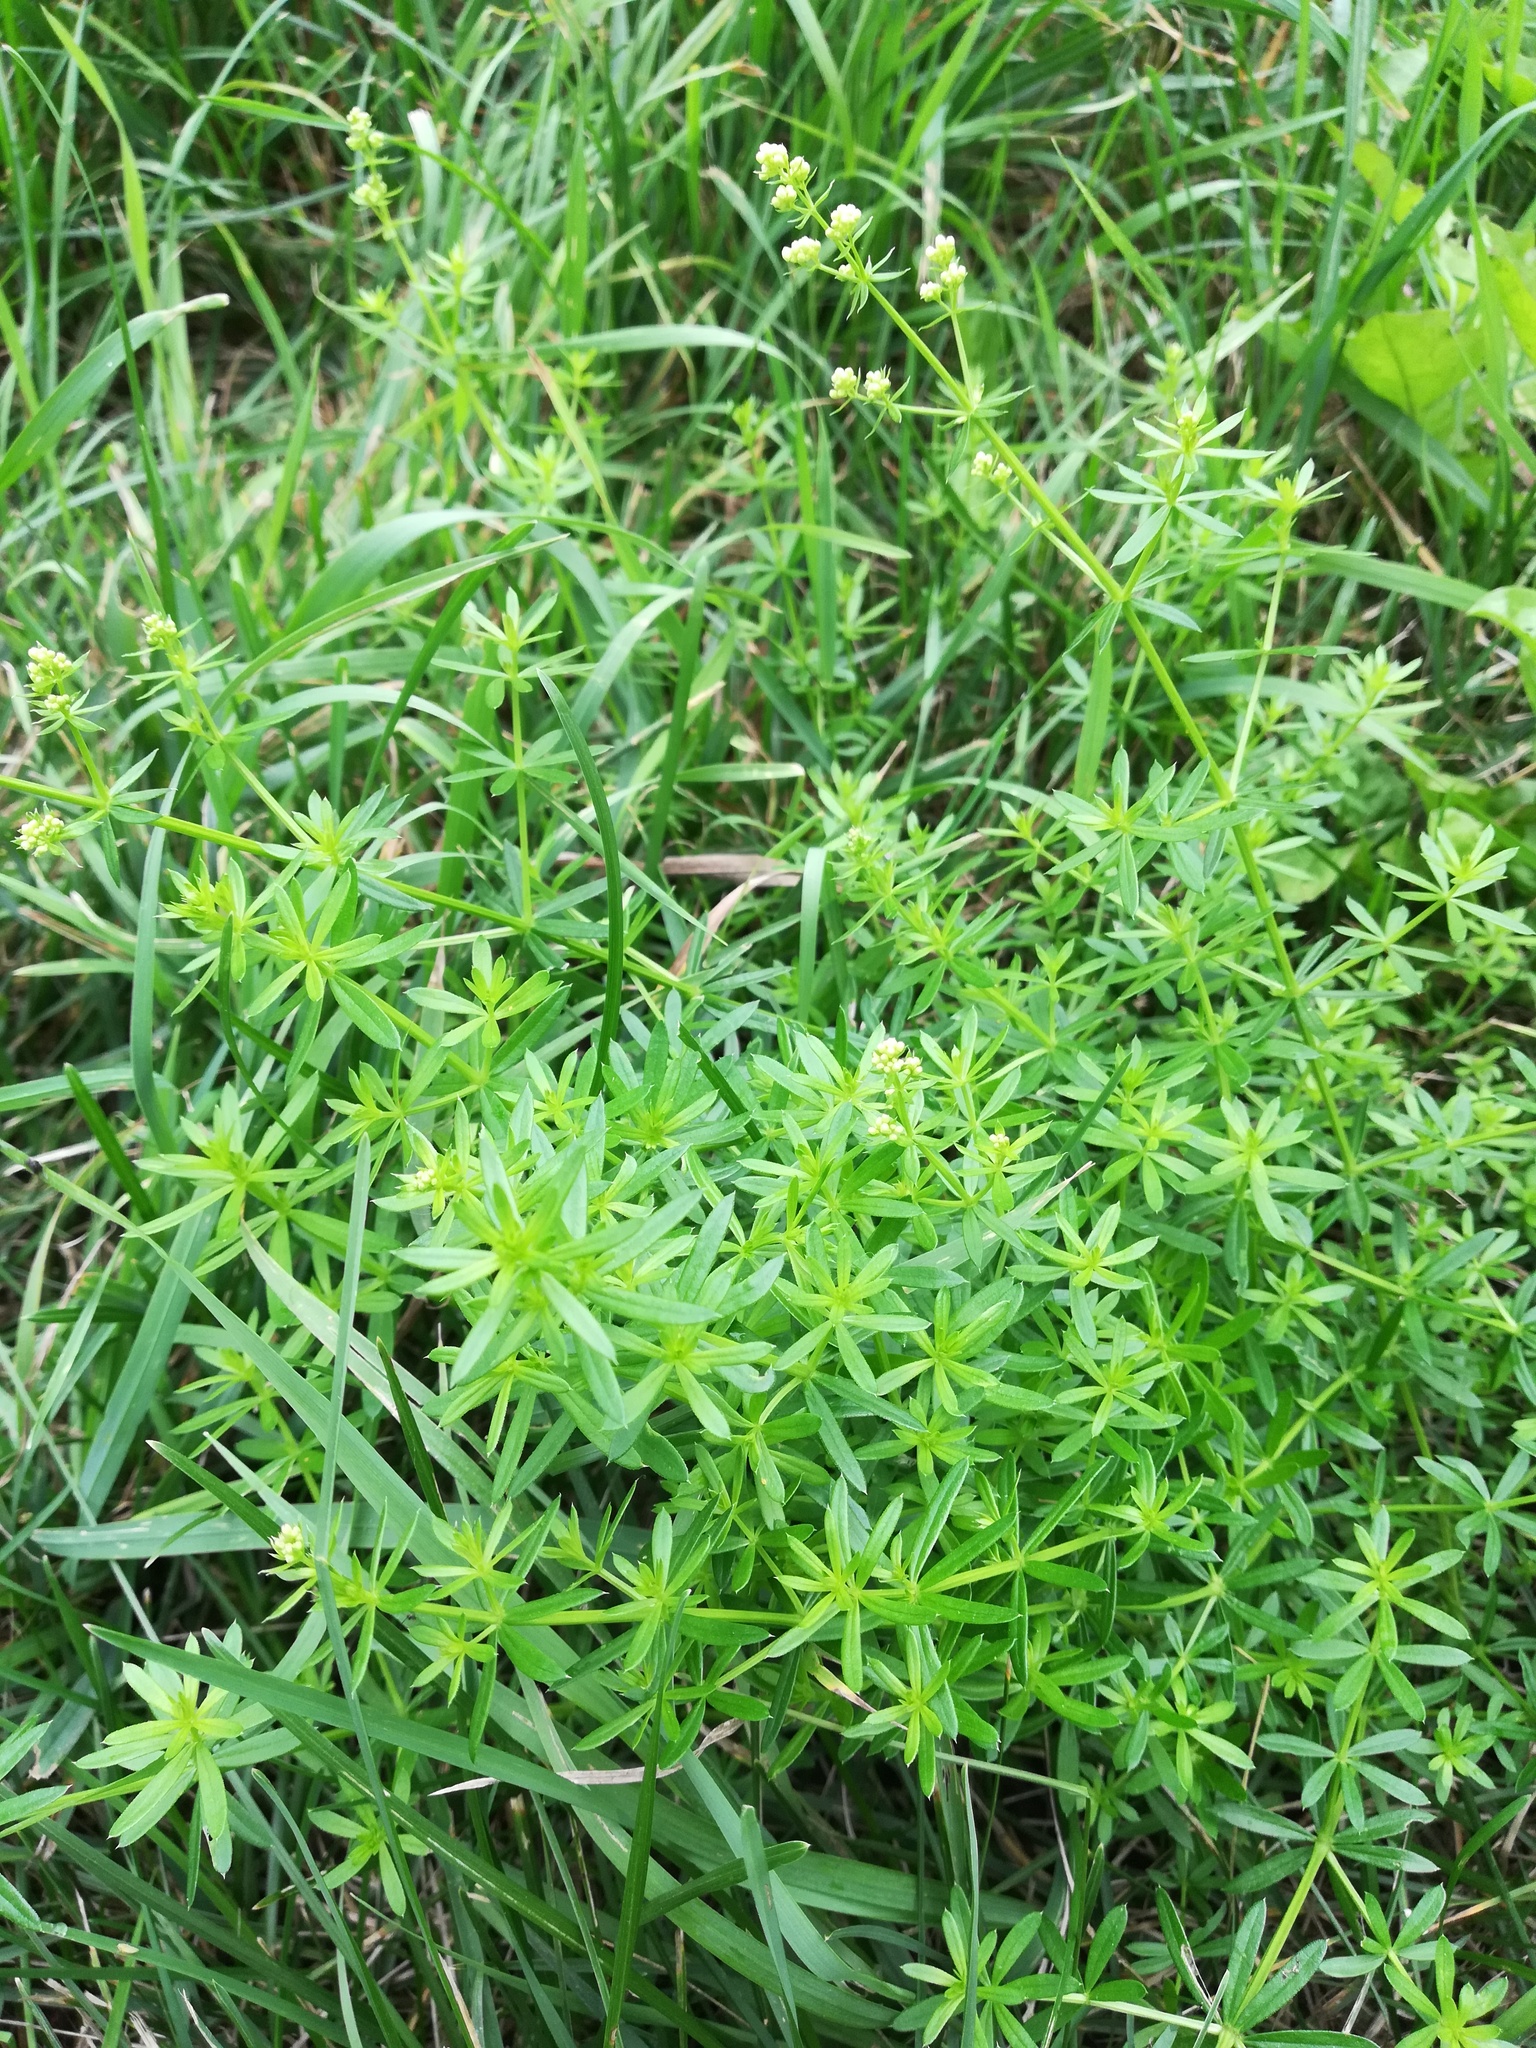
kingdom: Plantae
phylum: Tracheophyta
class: Magnoliopsida
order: Gentianales
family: Rubiaceae
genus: Galium
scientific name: Galium mollugo
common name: Hedge bedstraw
